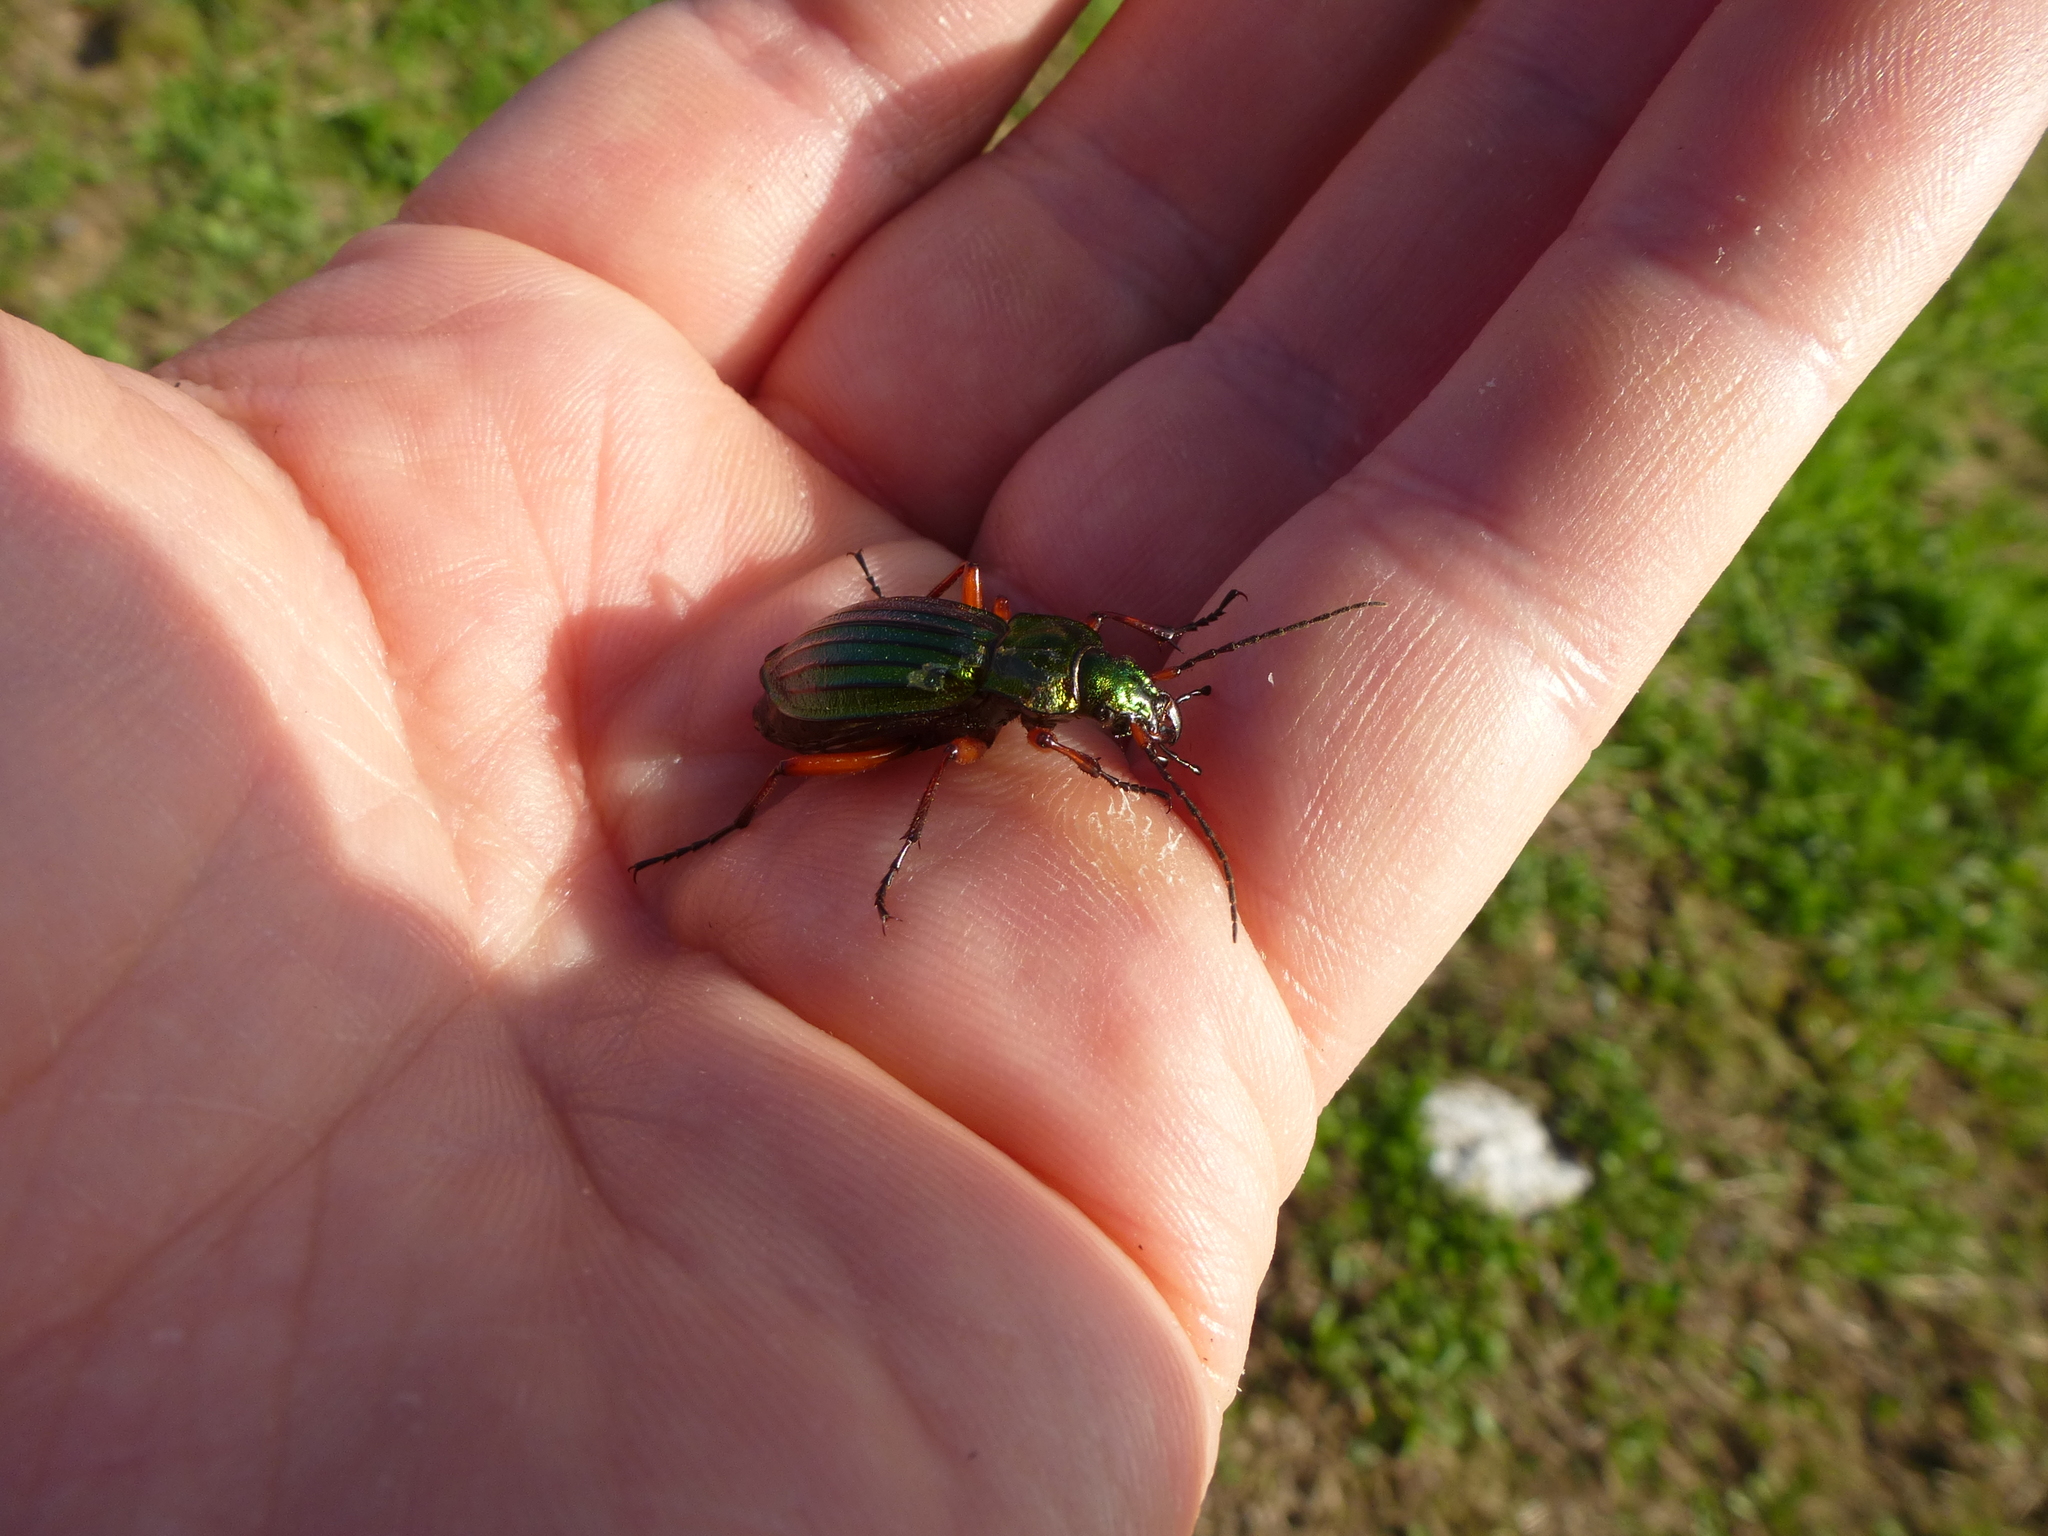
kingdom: Animalia
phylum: Arthropoda
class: Insecta
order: Coleoptera
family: Carabidae
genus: Carabus
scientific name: Carabus auronitens
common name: Carabus auronitens
